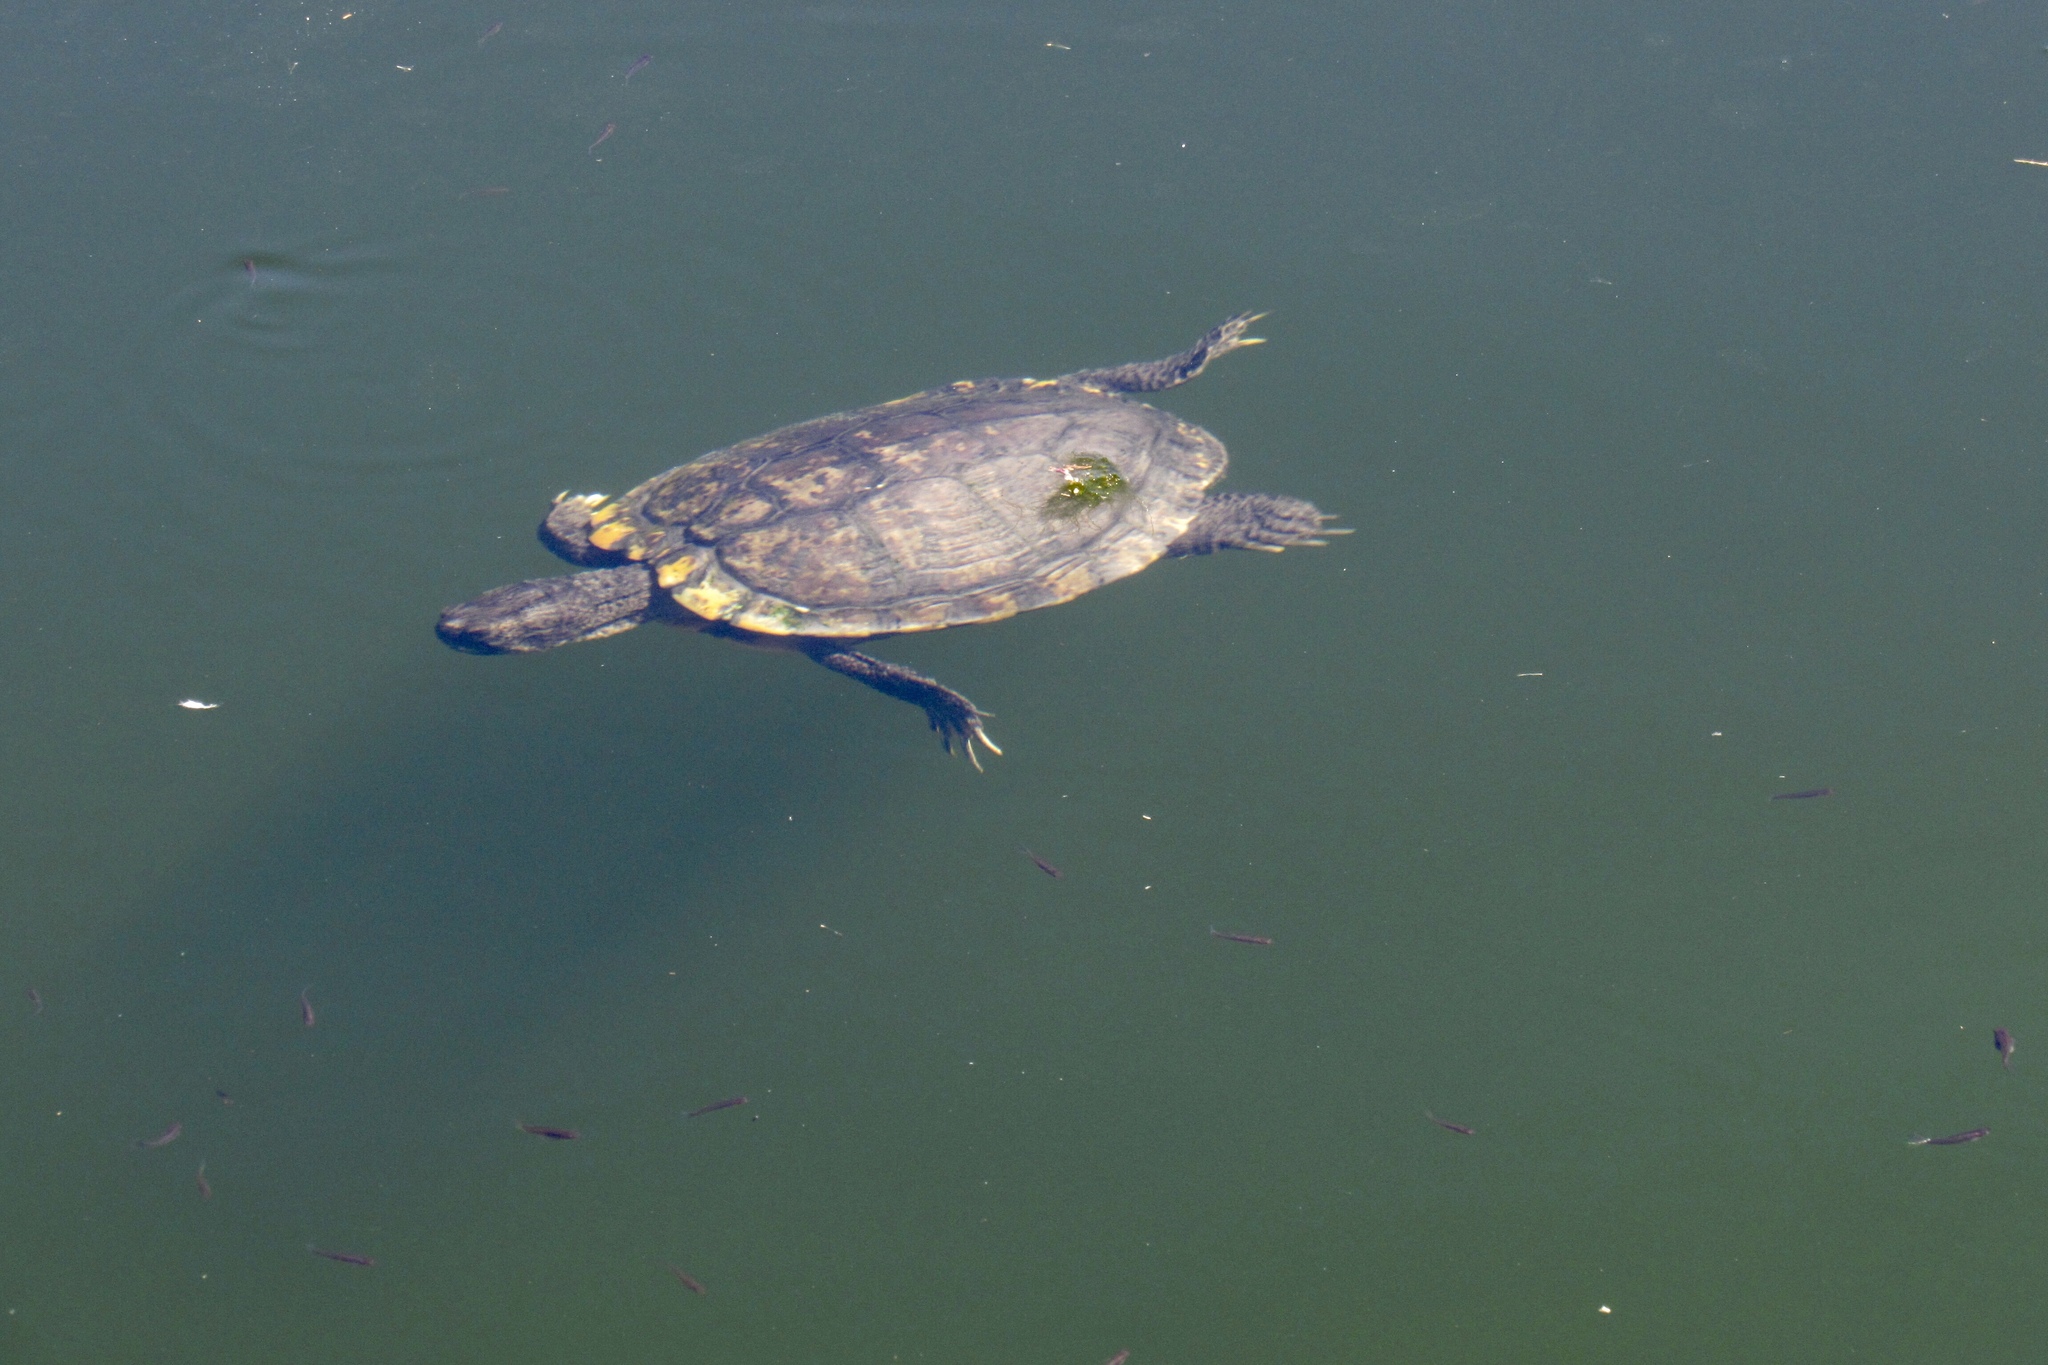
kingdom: Animalia
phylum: Chordata
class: Testudines
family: Emydidae
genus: Trachemys
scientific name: Trachemys scripta
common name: Slider
